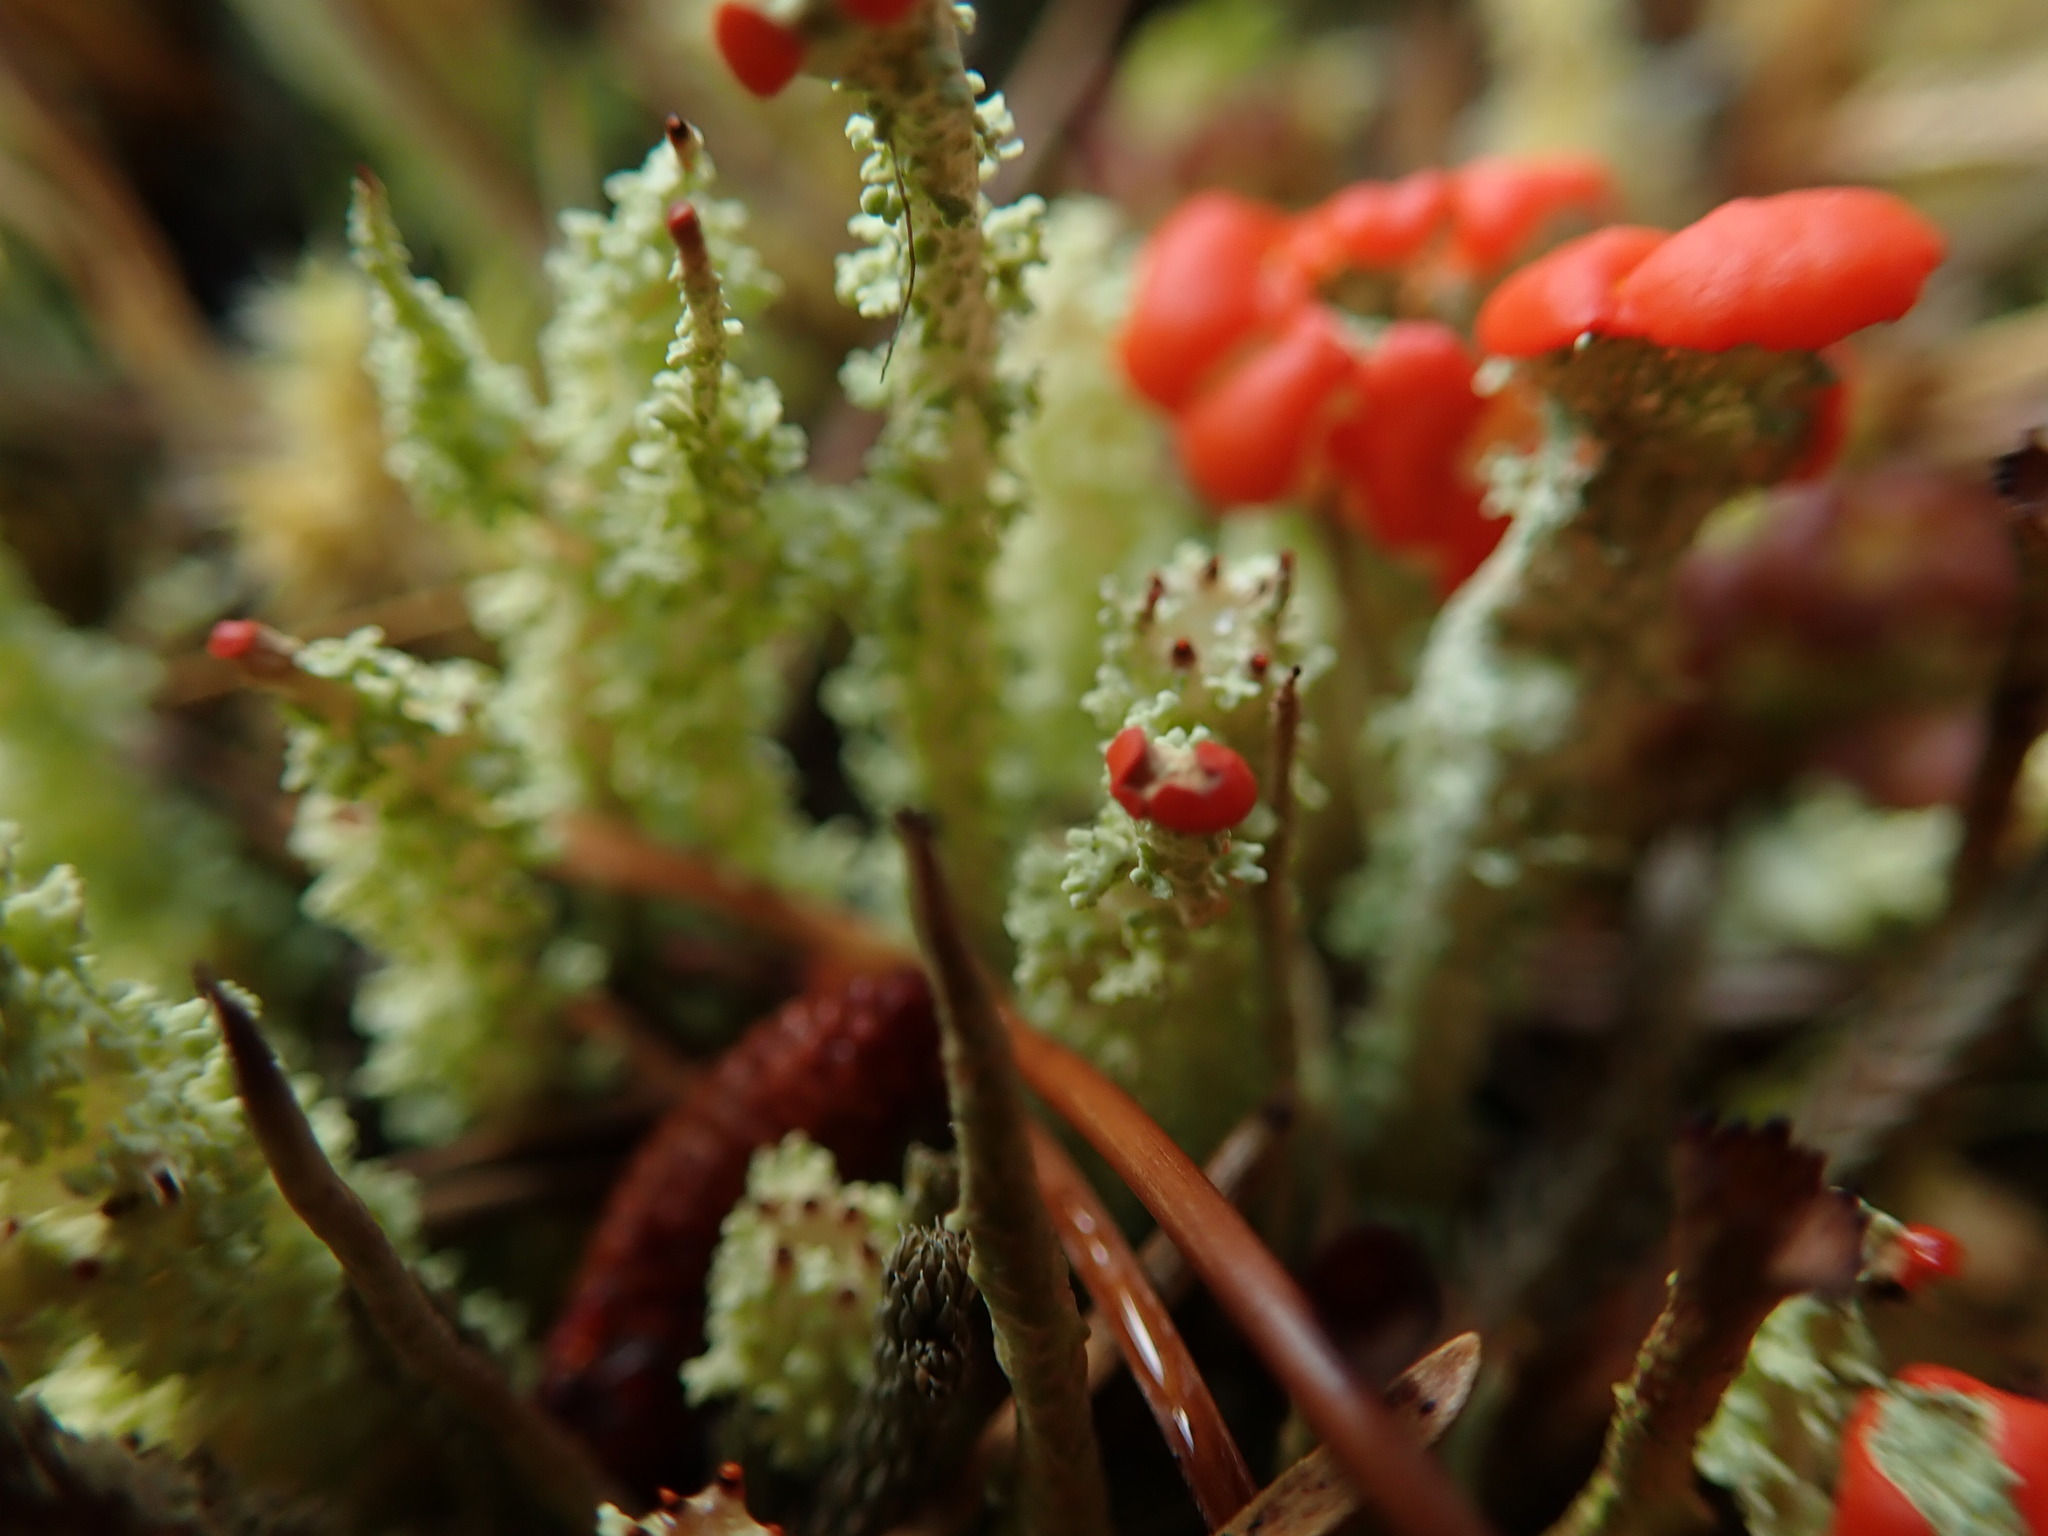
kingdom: Fungi
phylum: Ascomycota
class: Lecanoromycetes
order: Lecanorales
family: Cladoniaceae
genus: Cladonia
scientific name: Cladonia bellidiflora
